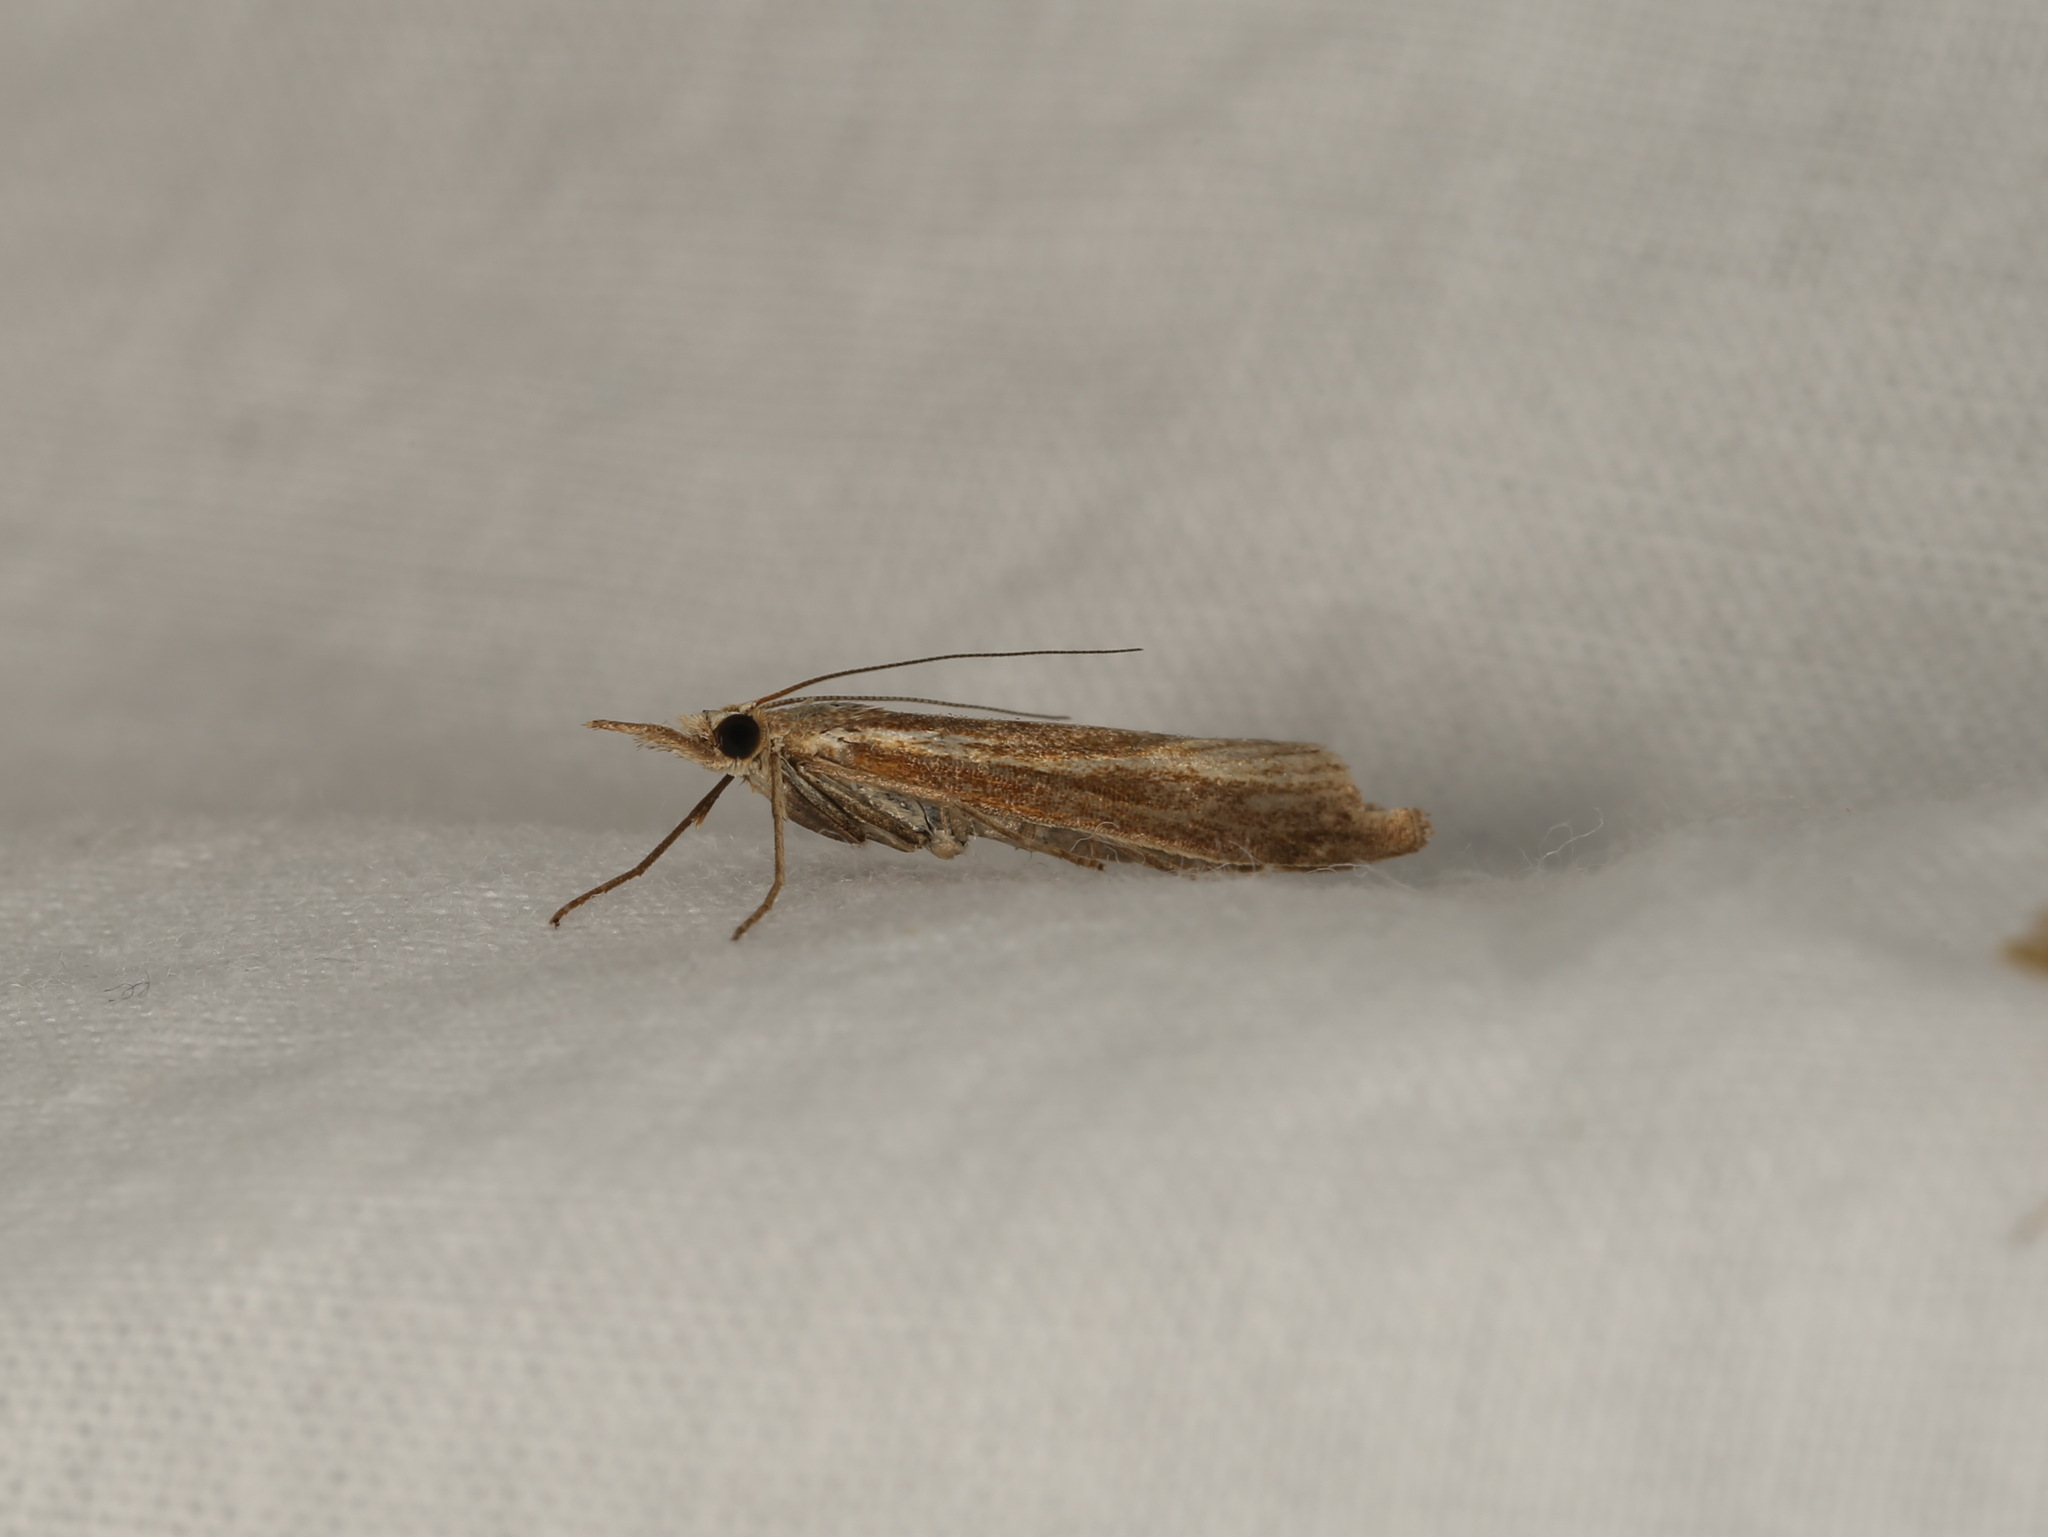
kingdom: Animalia
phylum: Arthropoda
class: Insecta
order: Lepidoptera
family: Crambidae
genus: Agriphila
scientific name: Agriphila tristellus
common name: Common grass-veneer
